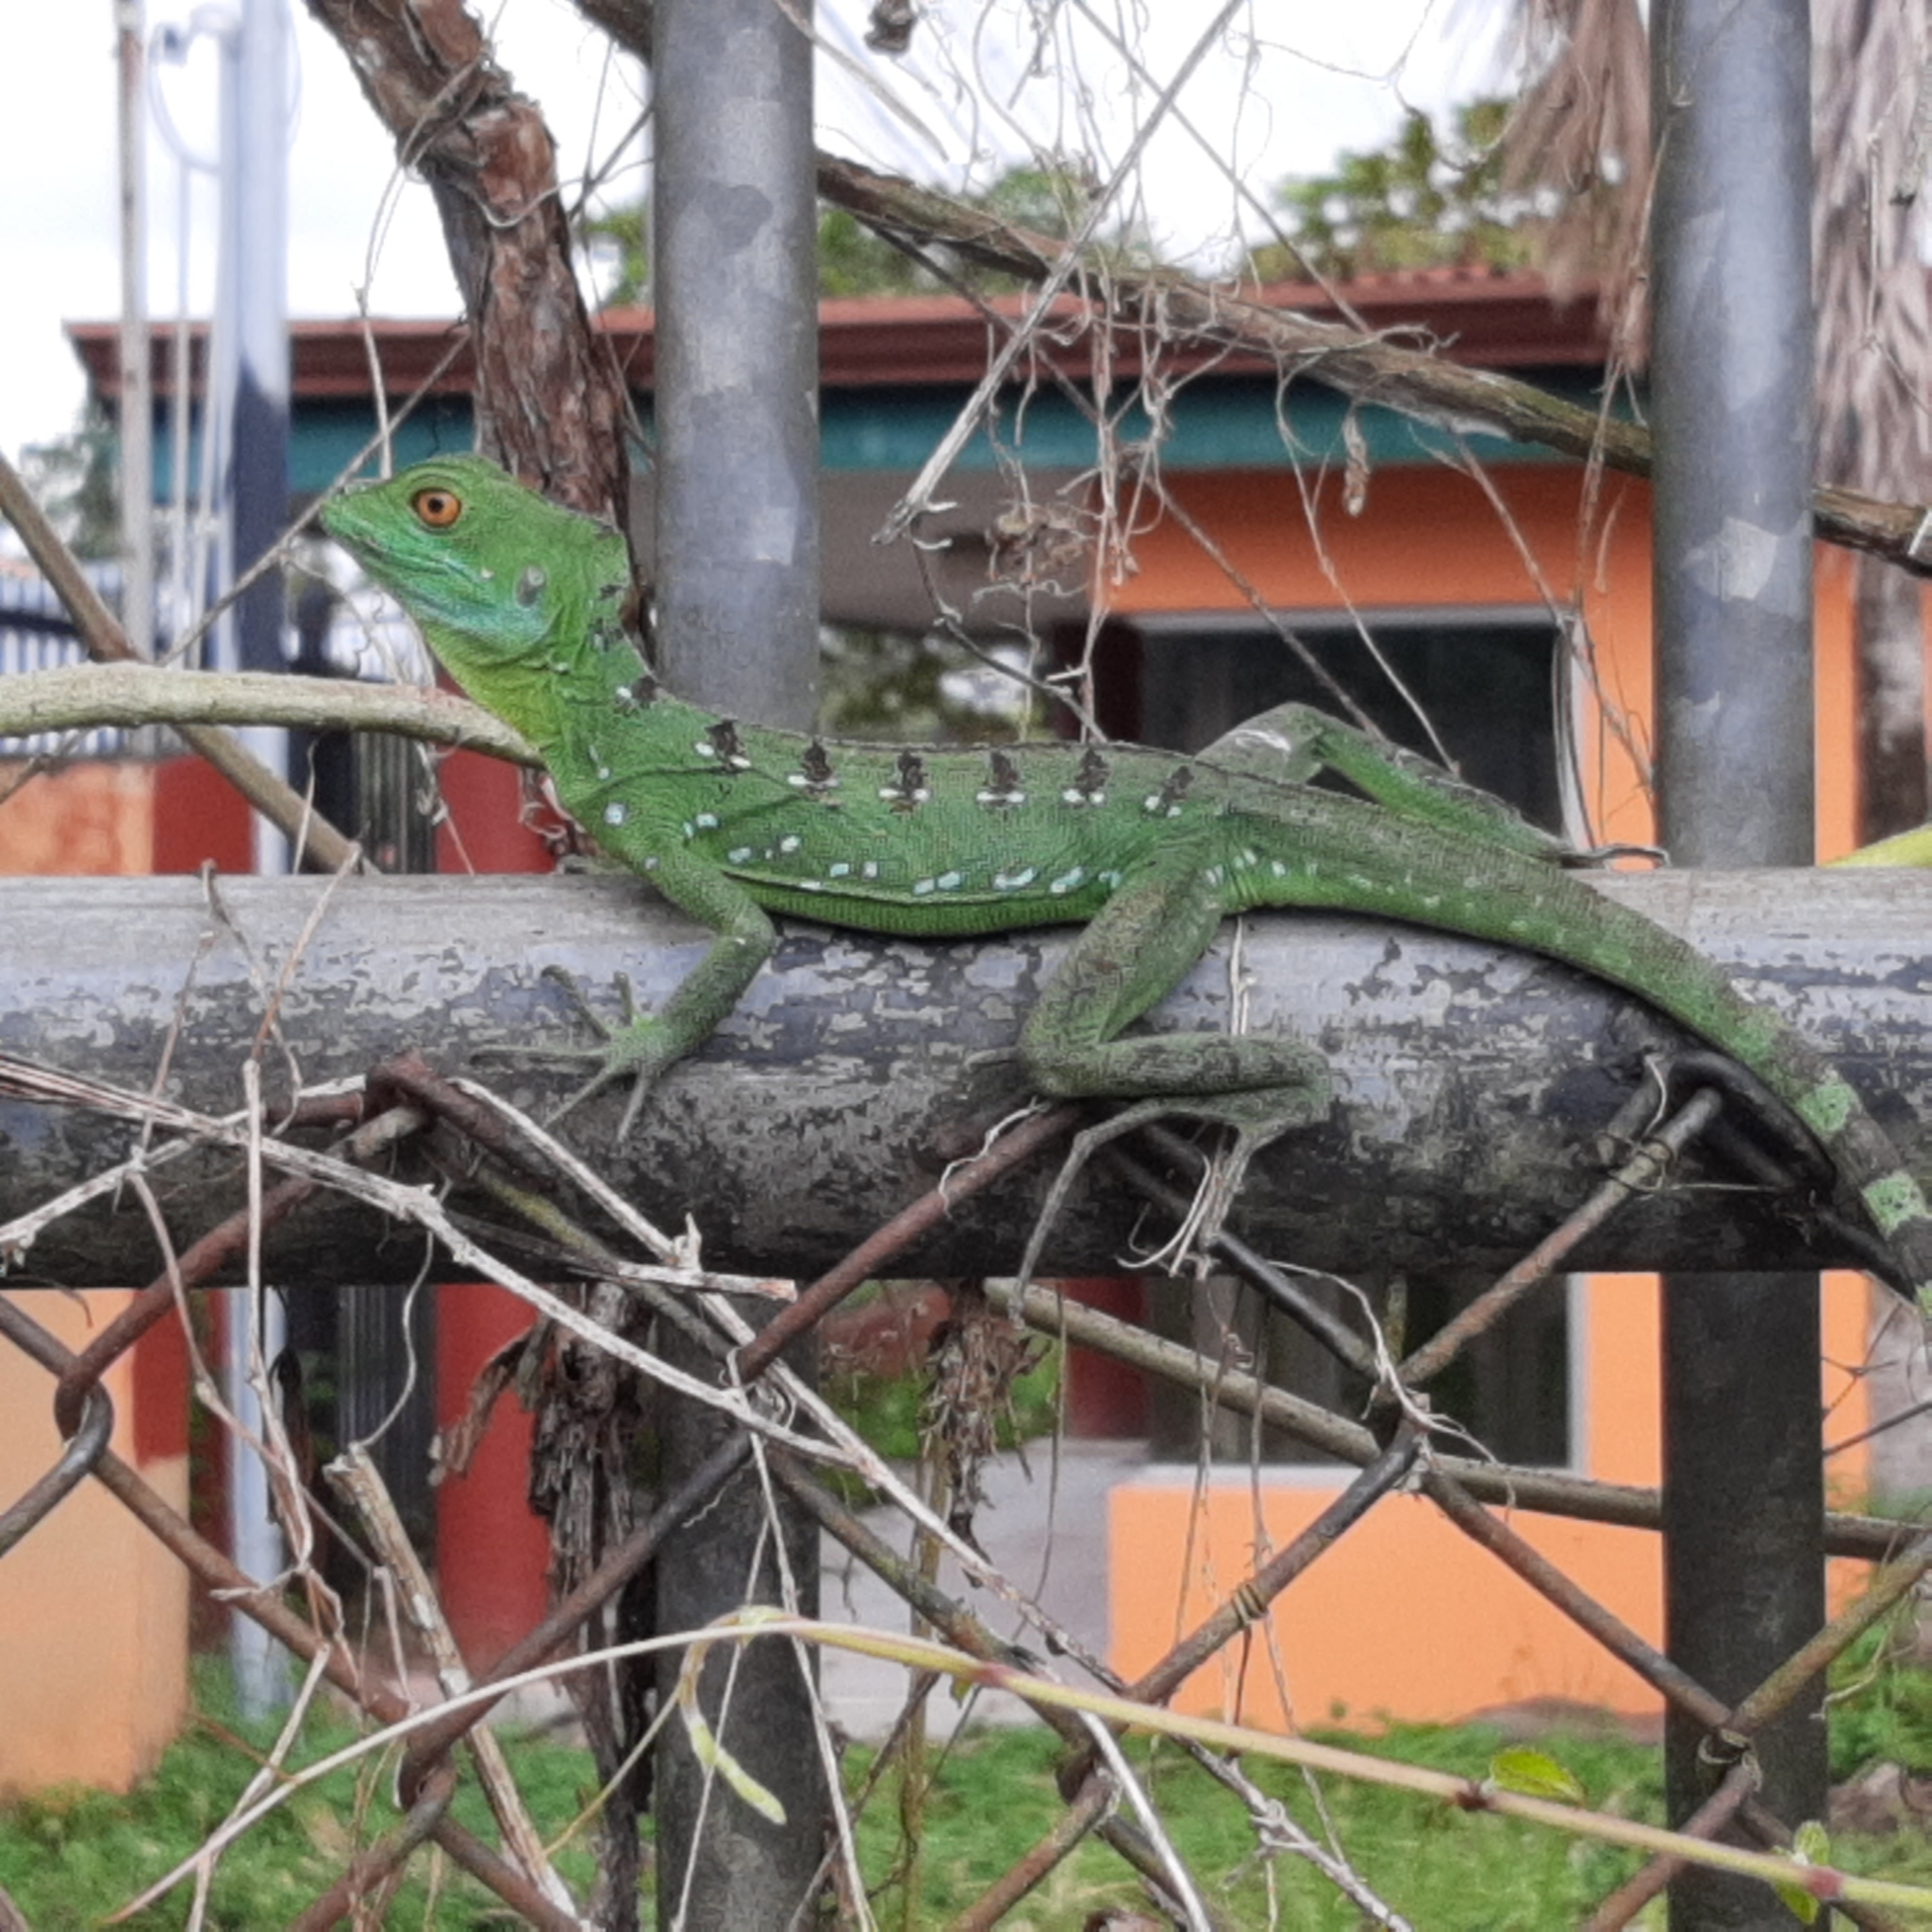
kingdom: Animalia
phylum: Chordata
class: Squamata
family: Corytophanidae
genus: Basiliscus
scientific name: Basiliscus plumifrons
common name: Green basilisk
